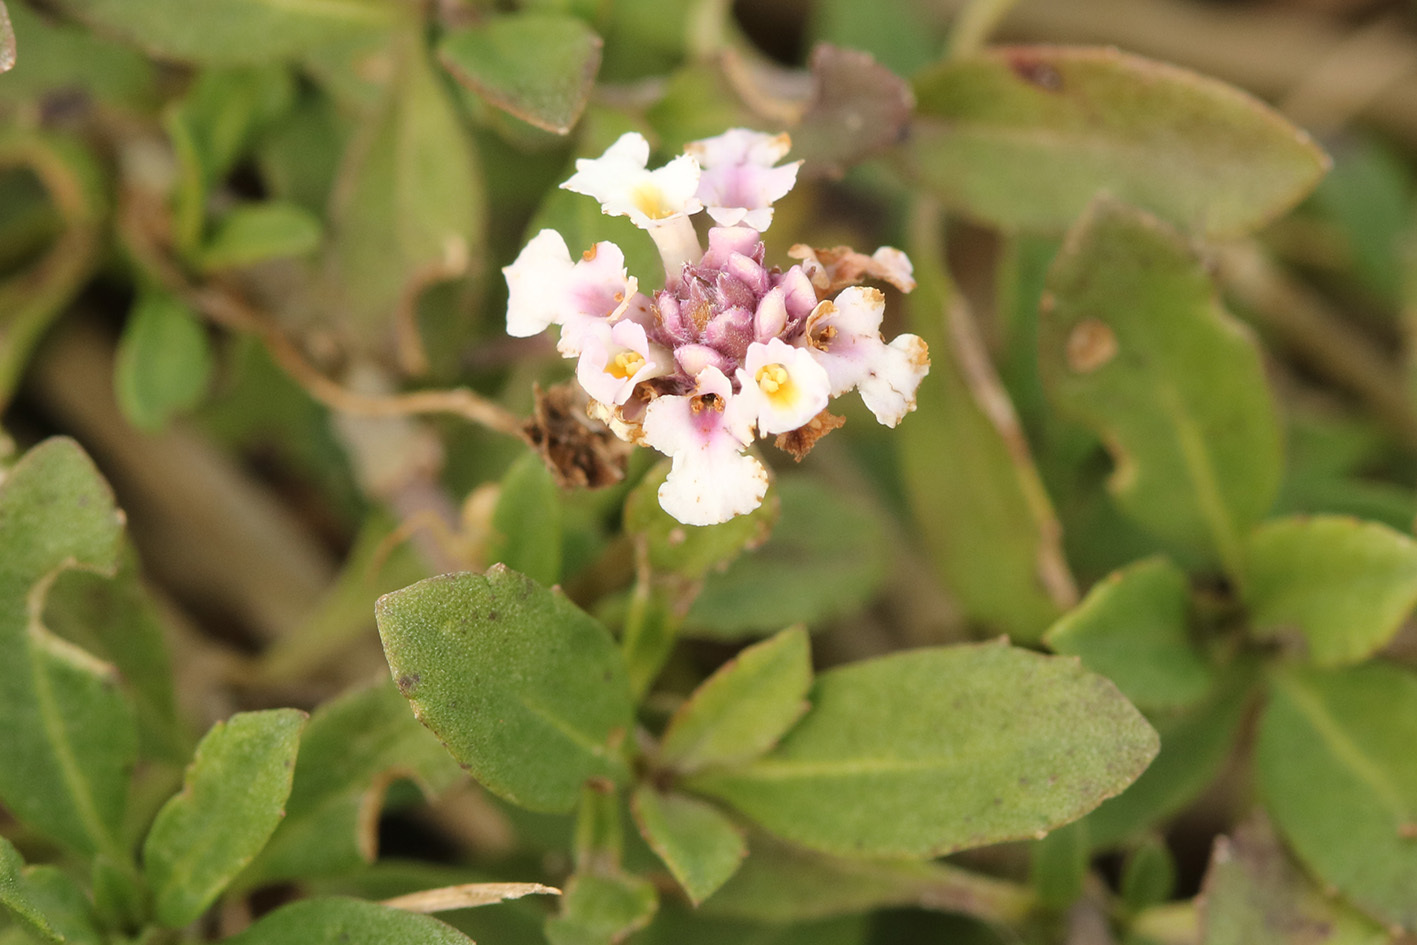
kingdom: Plantae
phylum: Tracheophyta
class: Magnoliopsida
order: Lamiales
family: Verbenaceae
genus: Phyla
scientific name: Phyla nodiflora
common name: Frogfruit
